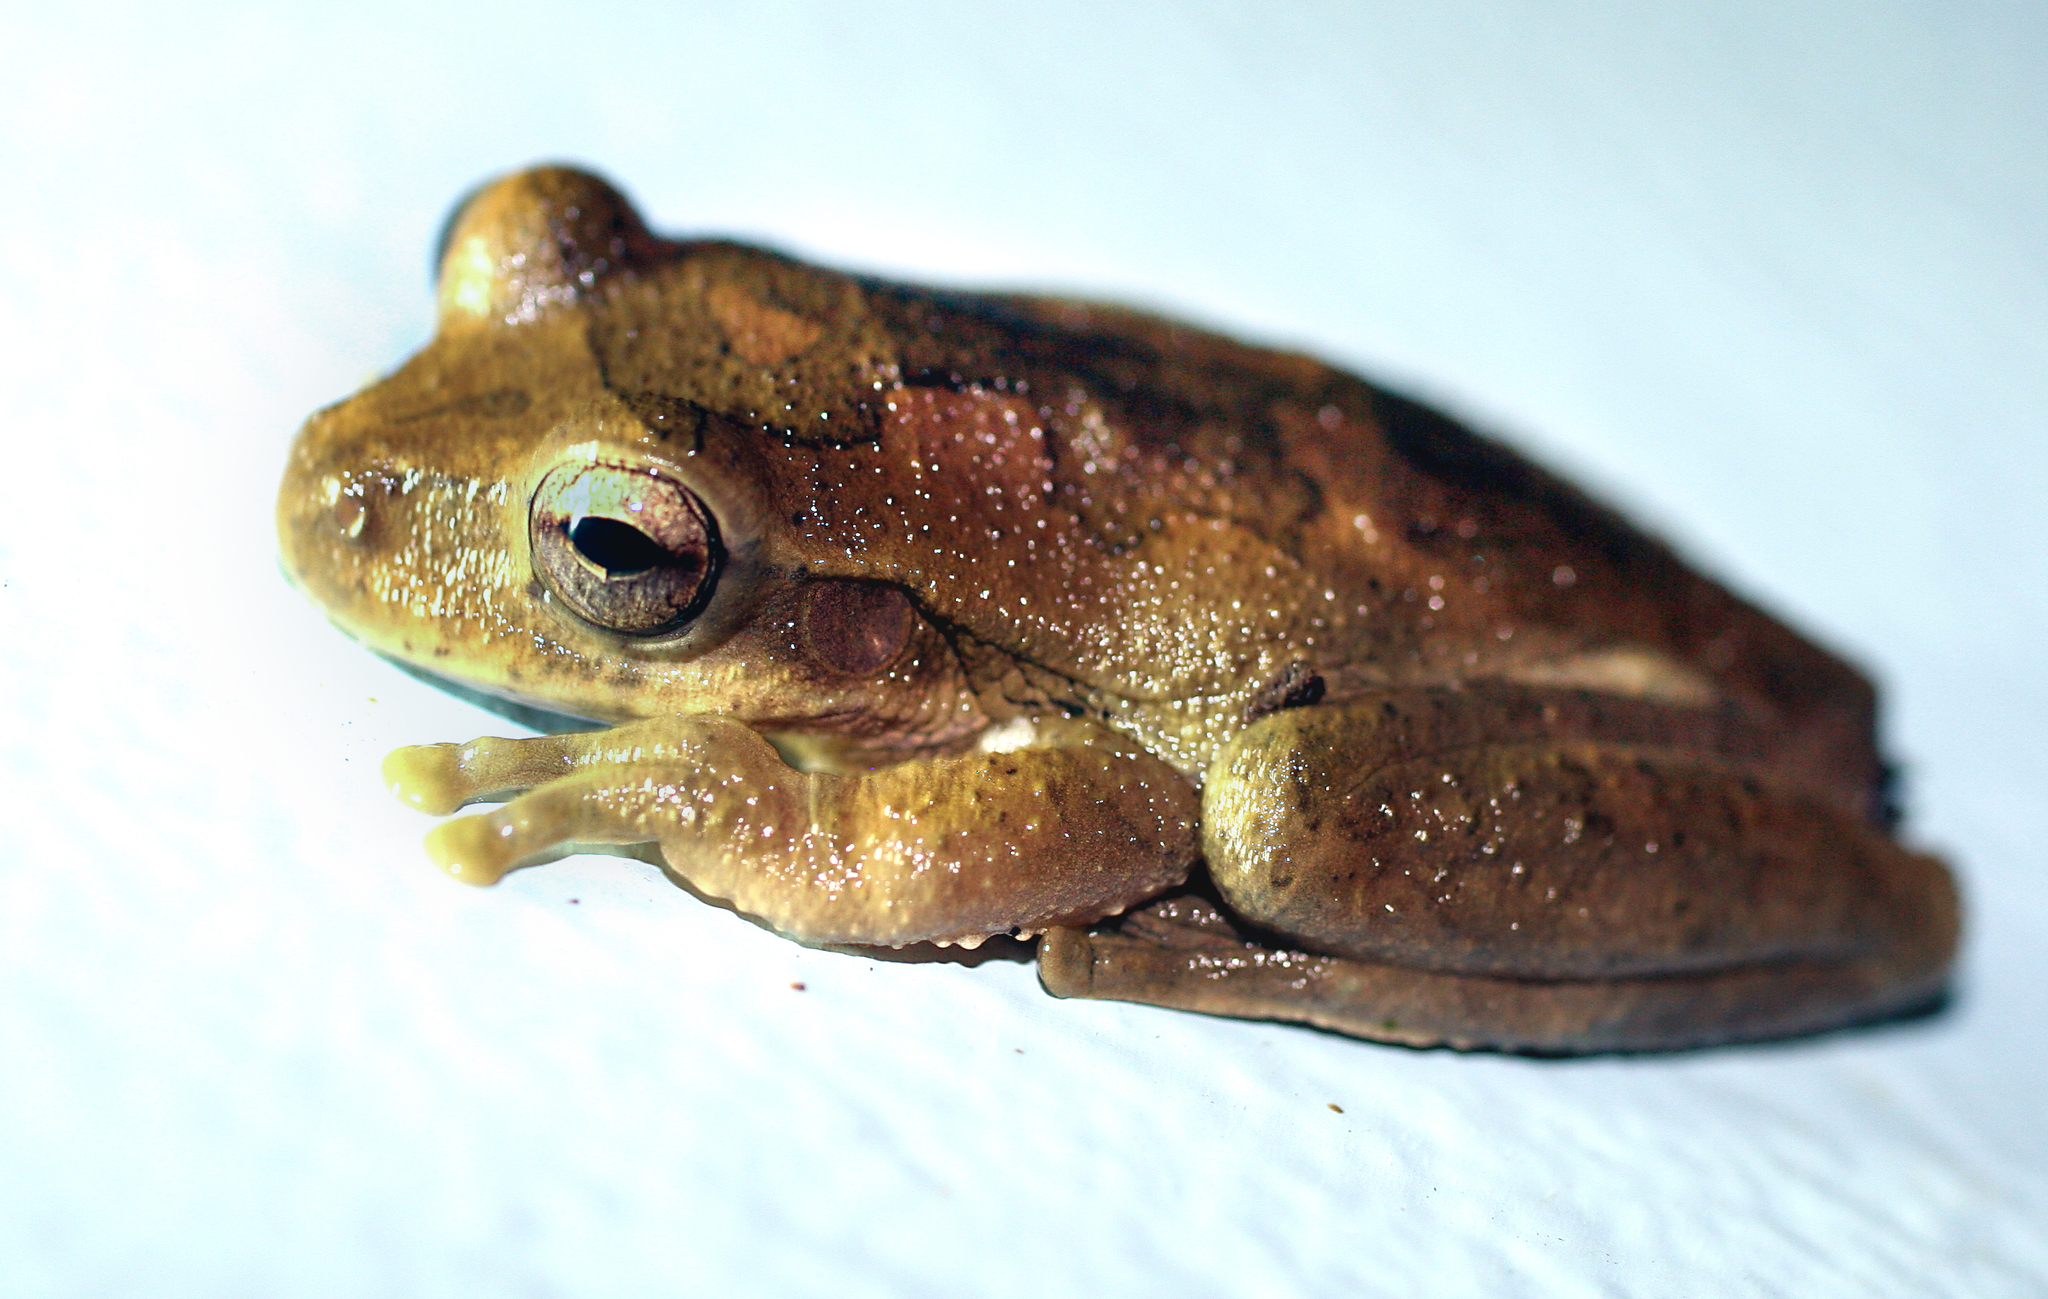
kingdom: Animalia
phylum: Chordata
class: Amphibia
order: Anura
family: Hylidae
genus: Smilisca
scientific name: Smilisca baudinii
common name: Mexican smilisca
